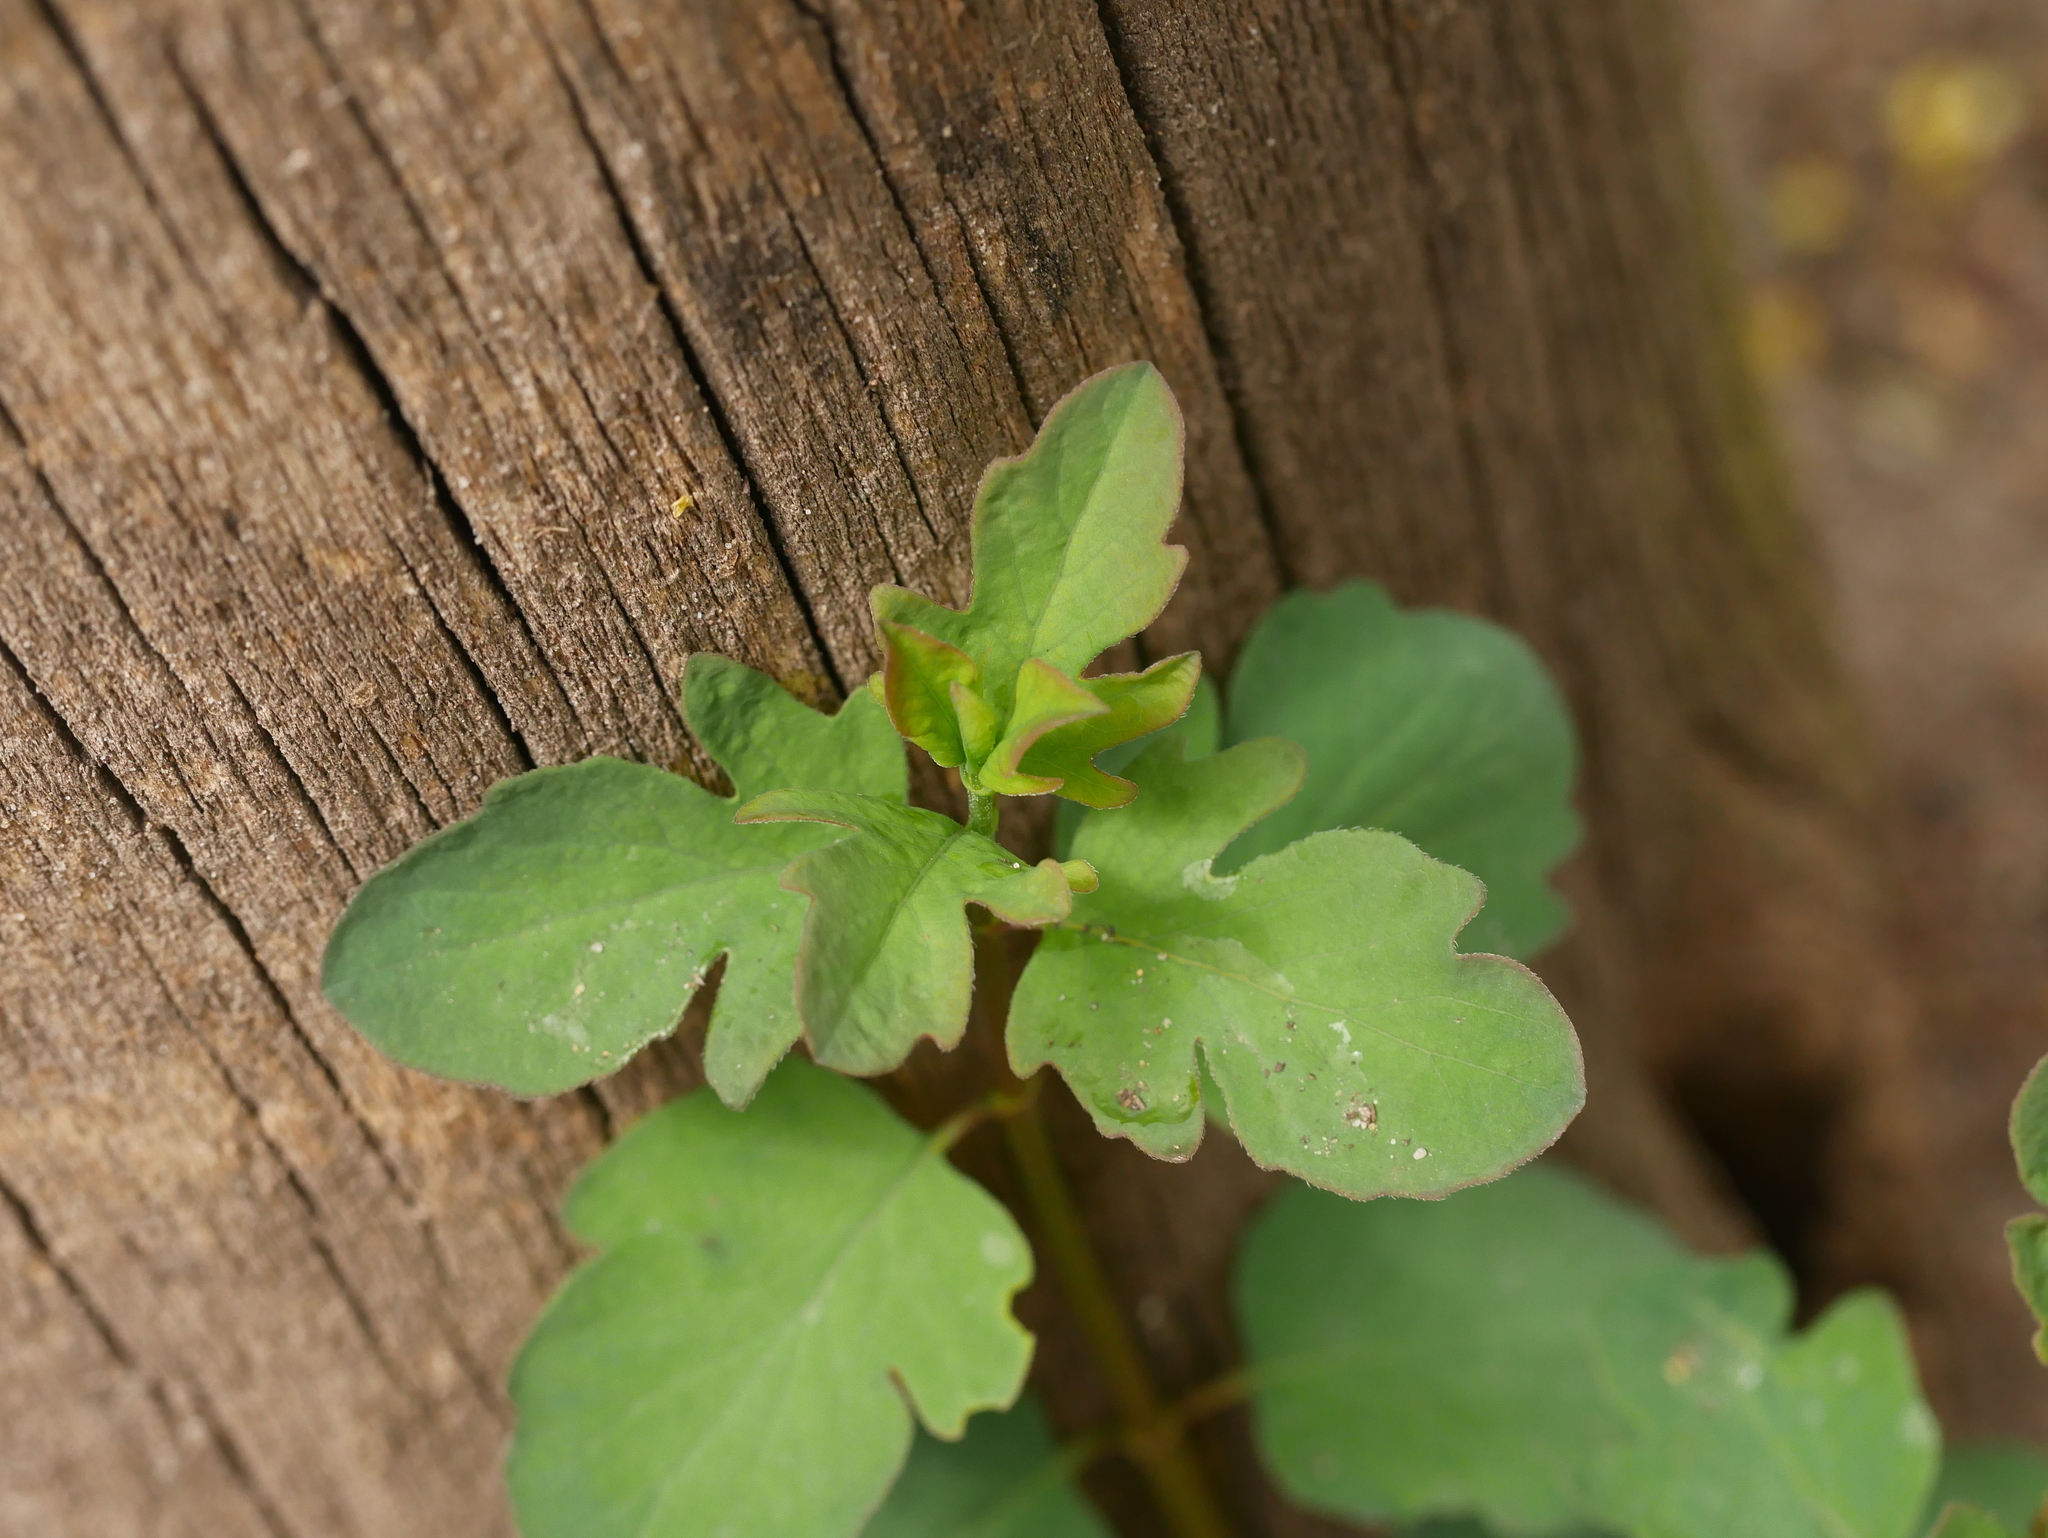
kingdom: Plantae
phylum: Tracheophyta
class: Magnoliopsida
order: Dipsacales
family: Caprifoliaceae
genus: Symphoricarpos
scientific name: Symphoricarpos albus
